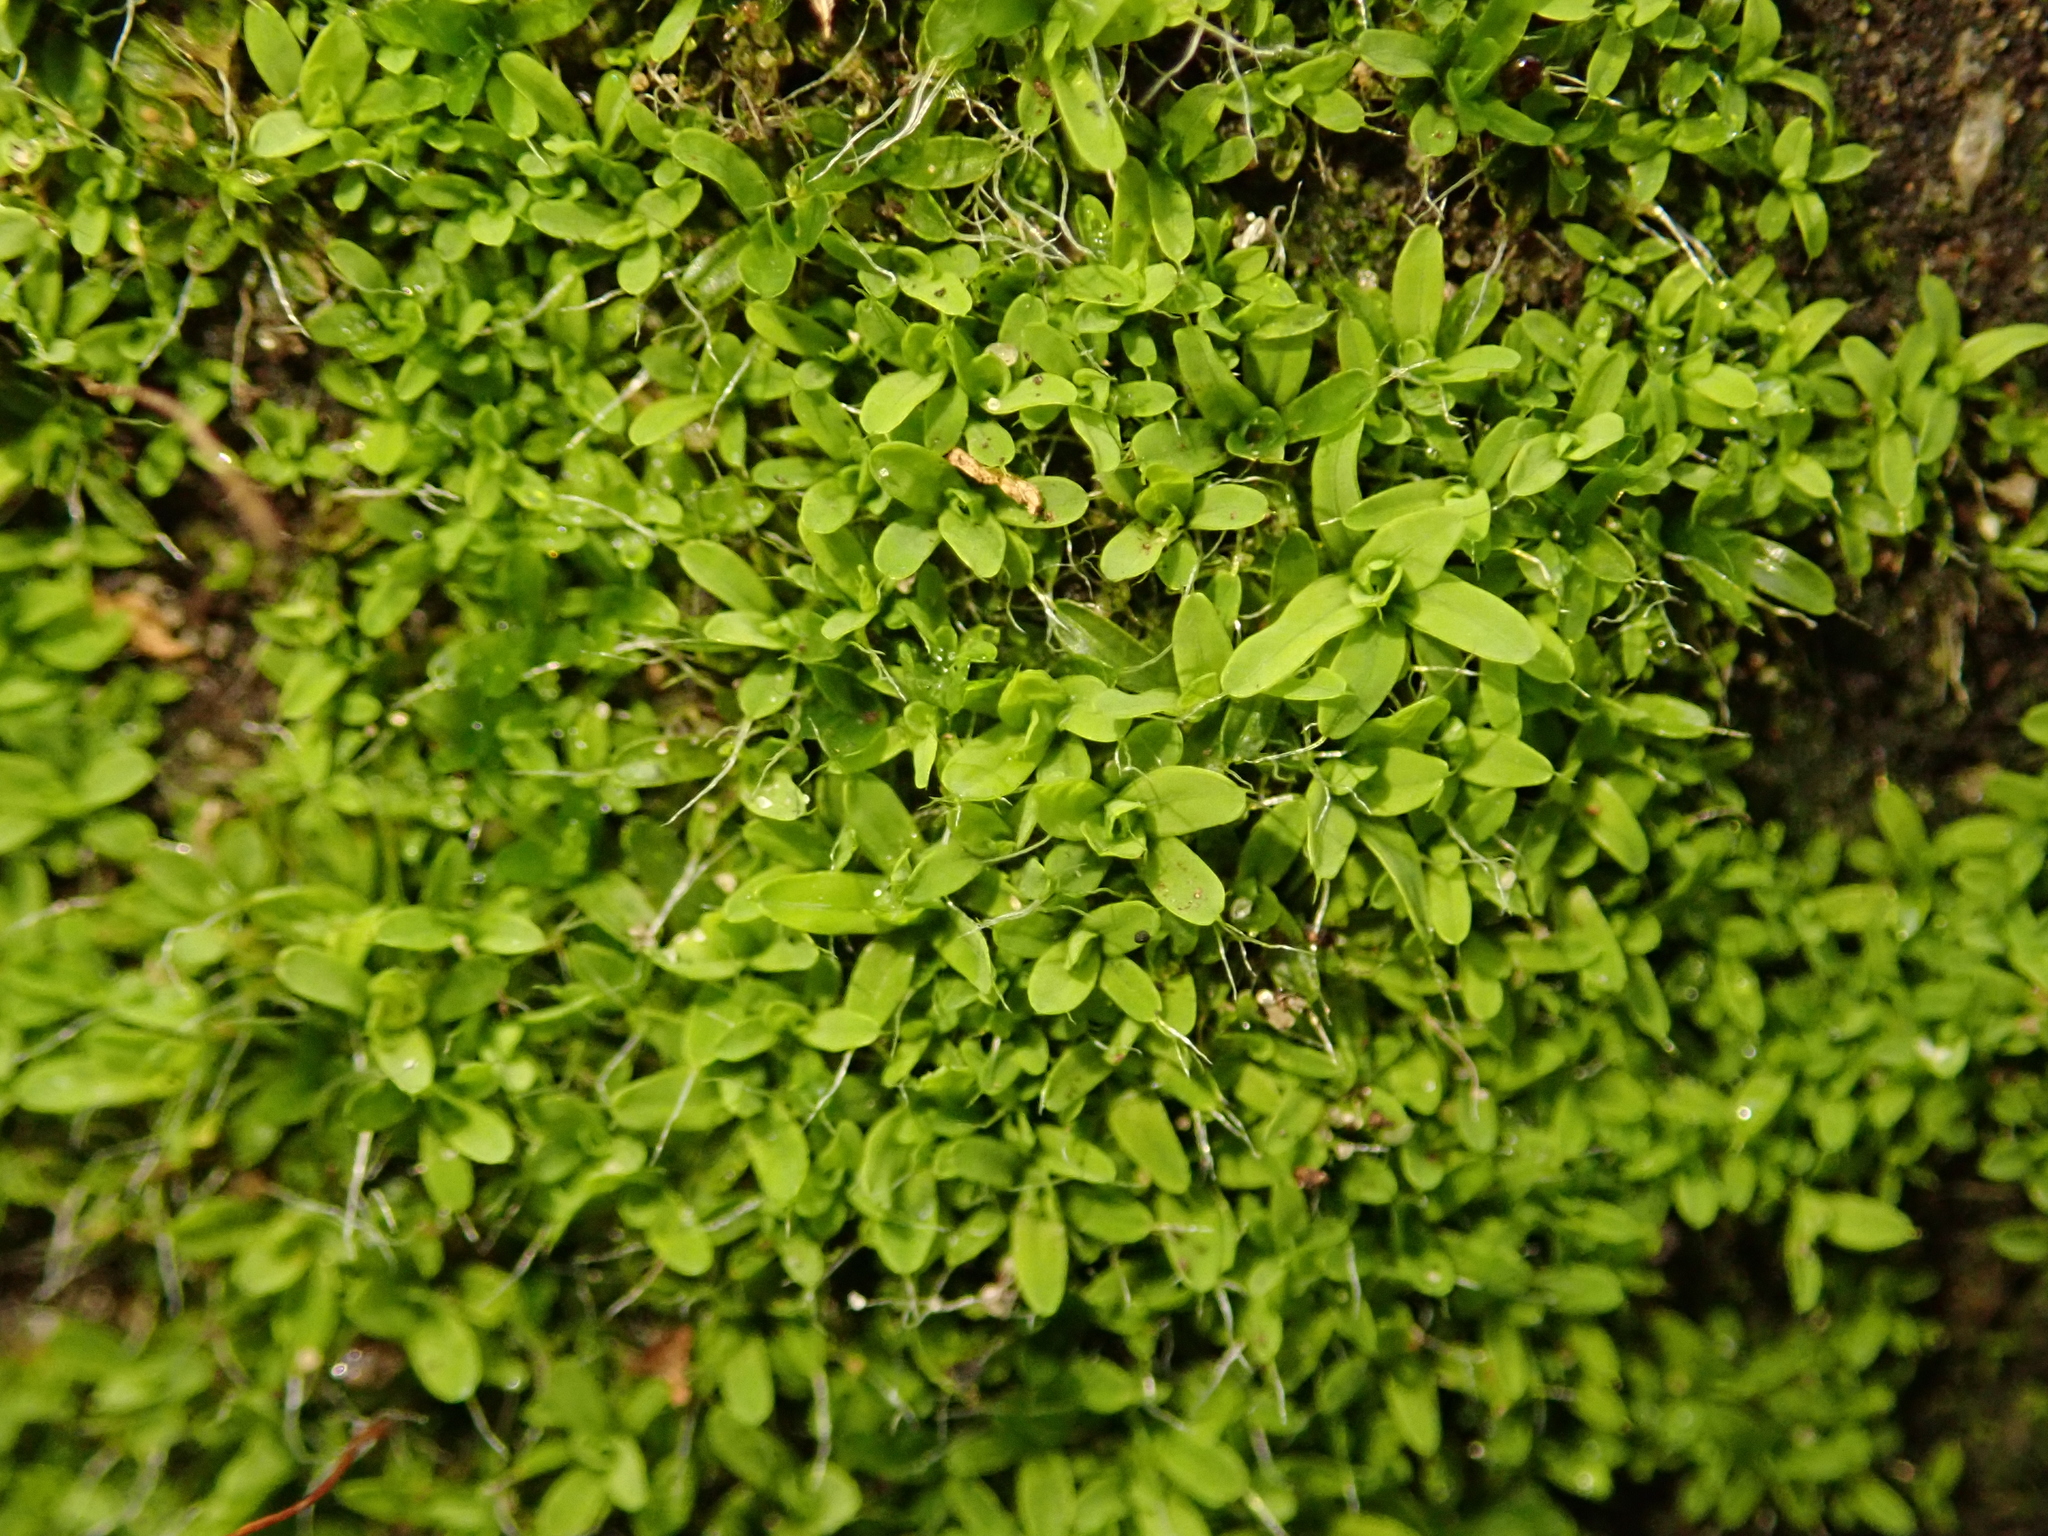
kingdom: Plantae
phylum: Bryophyta
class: Bryopsida
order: Pottiales
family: Pottiaceae
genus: Tortula
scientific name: Tortula muralis
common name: Wall screw-moss
